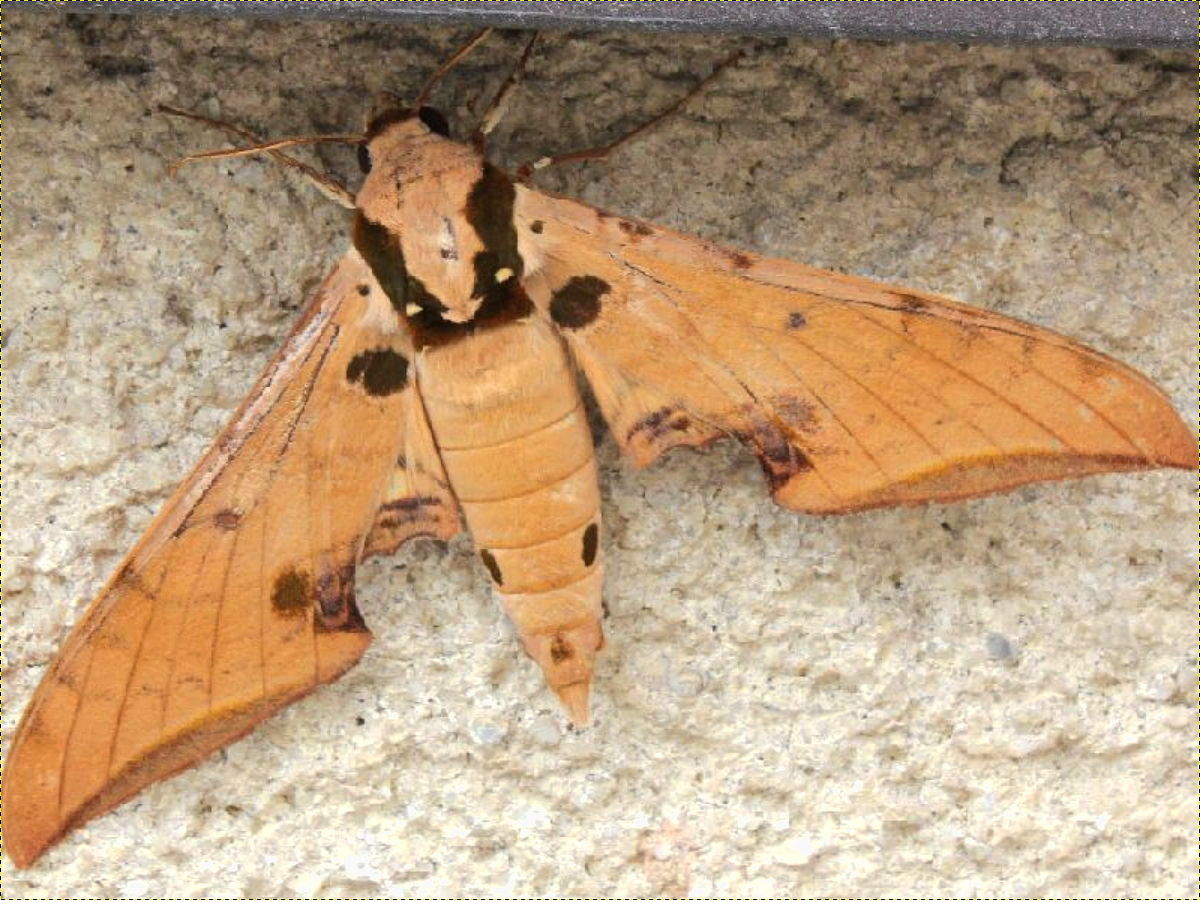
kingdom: Animalia
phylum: Arthropoda
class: Insecta
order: Lepidoptera
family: Sphingidae
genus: Ambulyx
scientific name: Ambulyx ochracea
